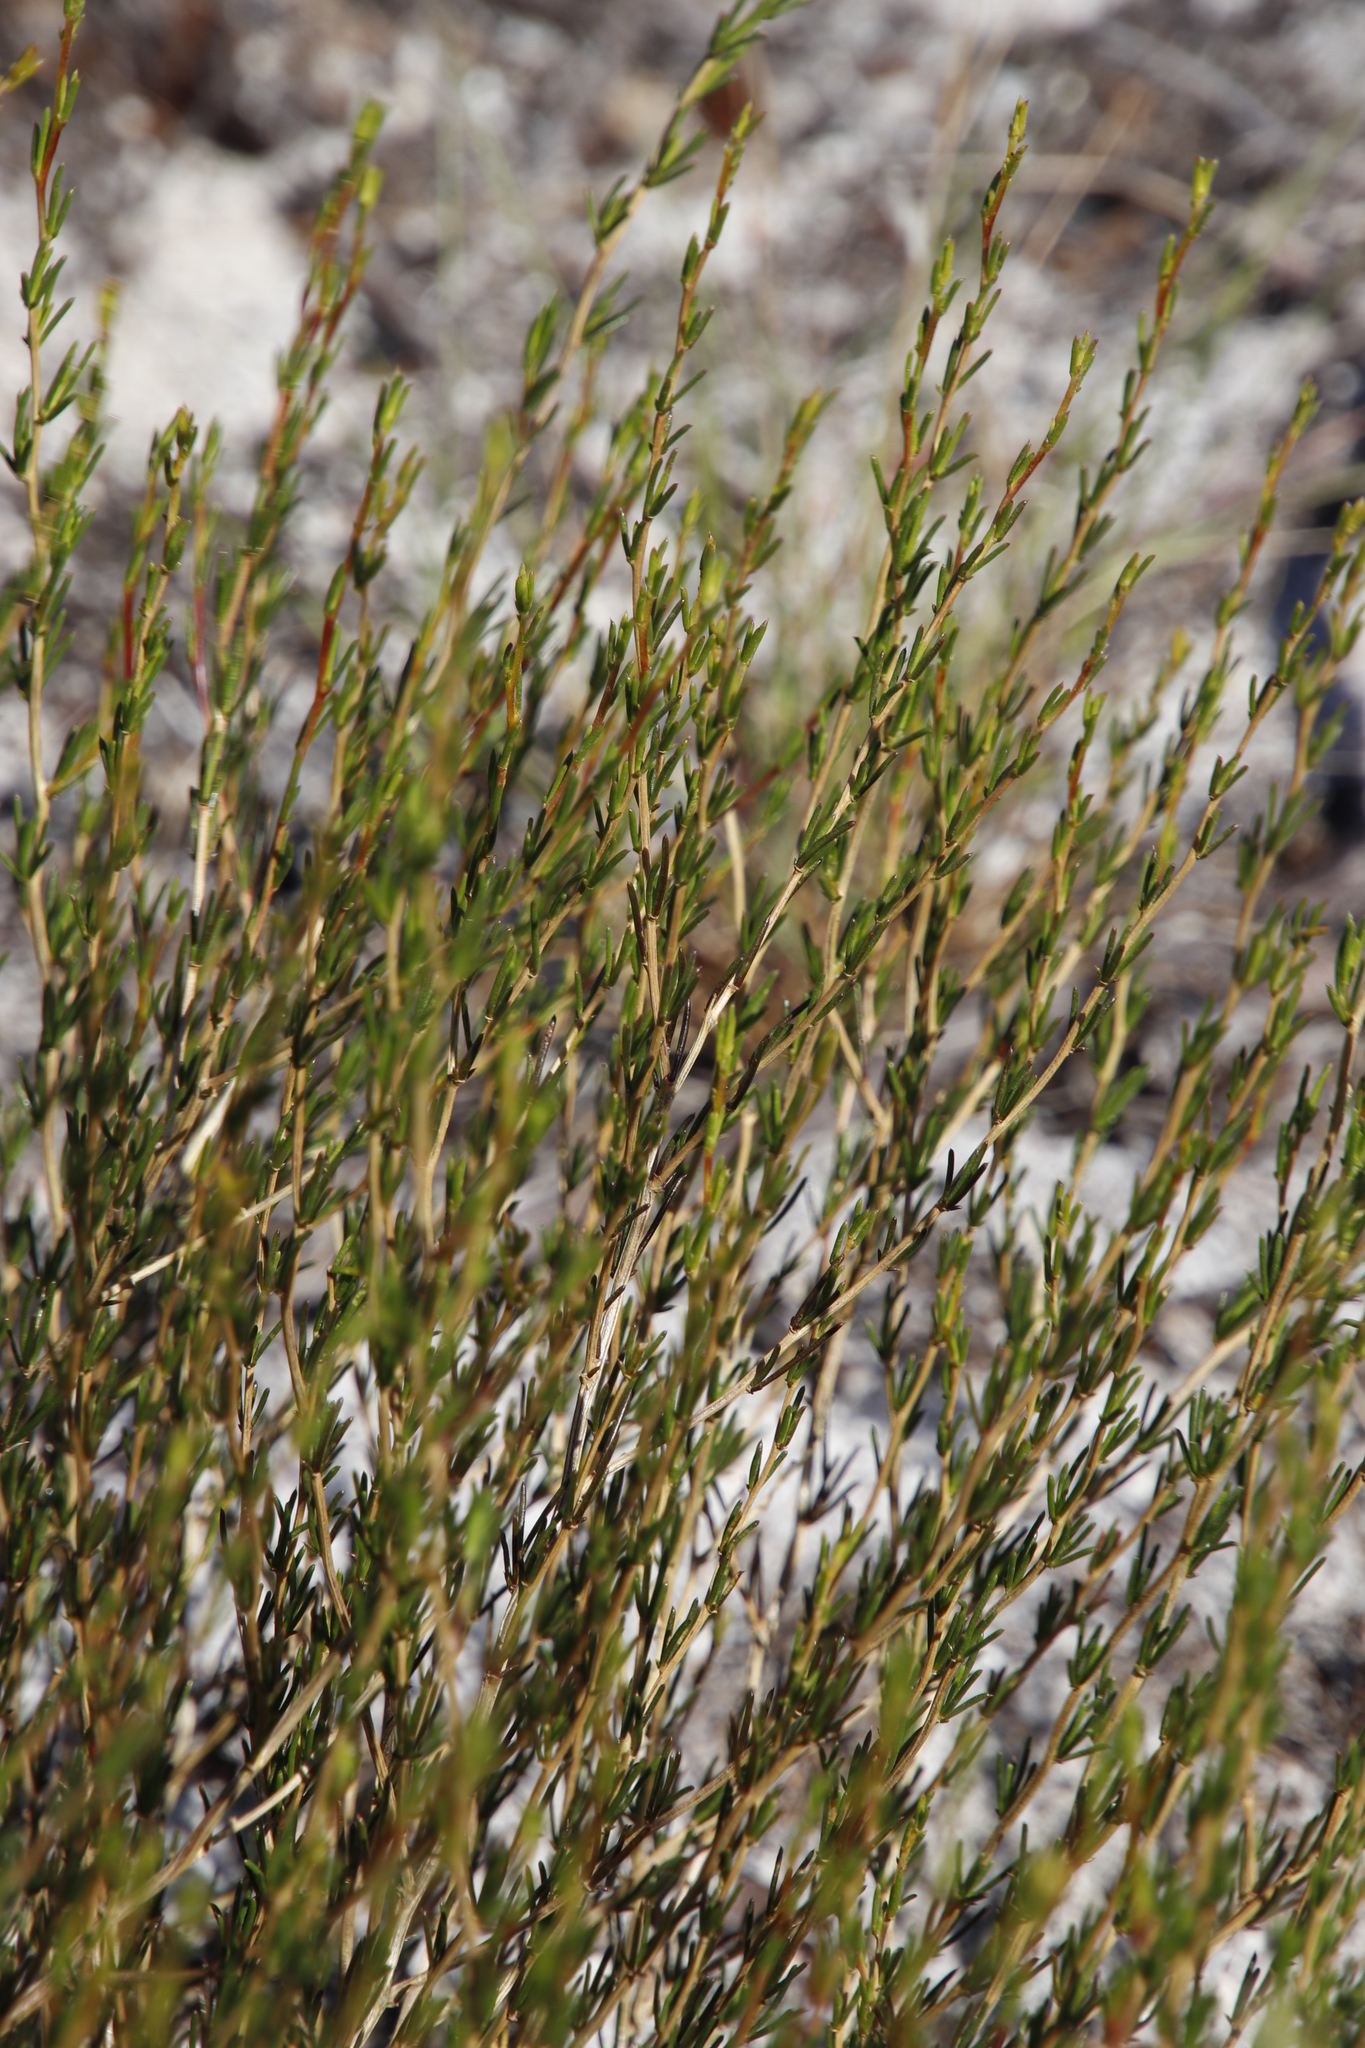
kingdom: Plantae
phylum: Tracheophyta
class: Magnoliopsida
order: Fabales
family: Fabaceae
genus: Aspalathus
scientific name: Aspalathus abietina
